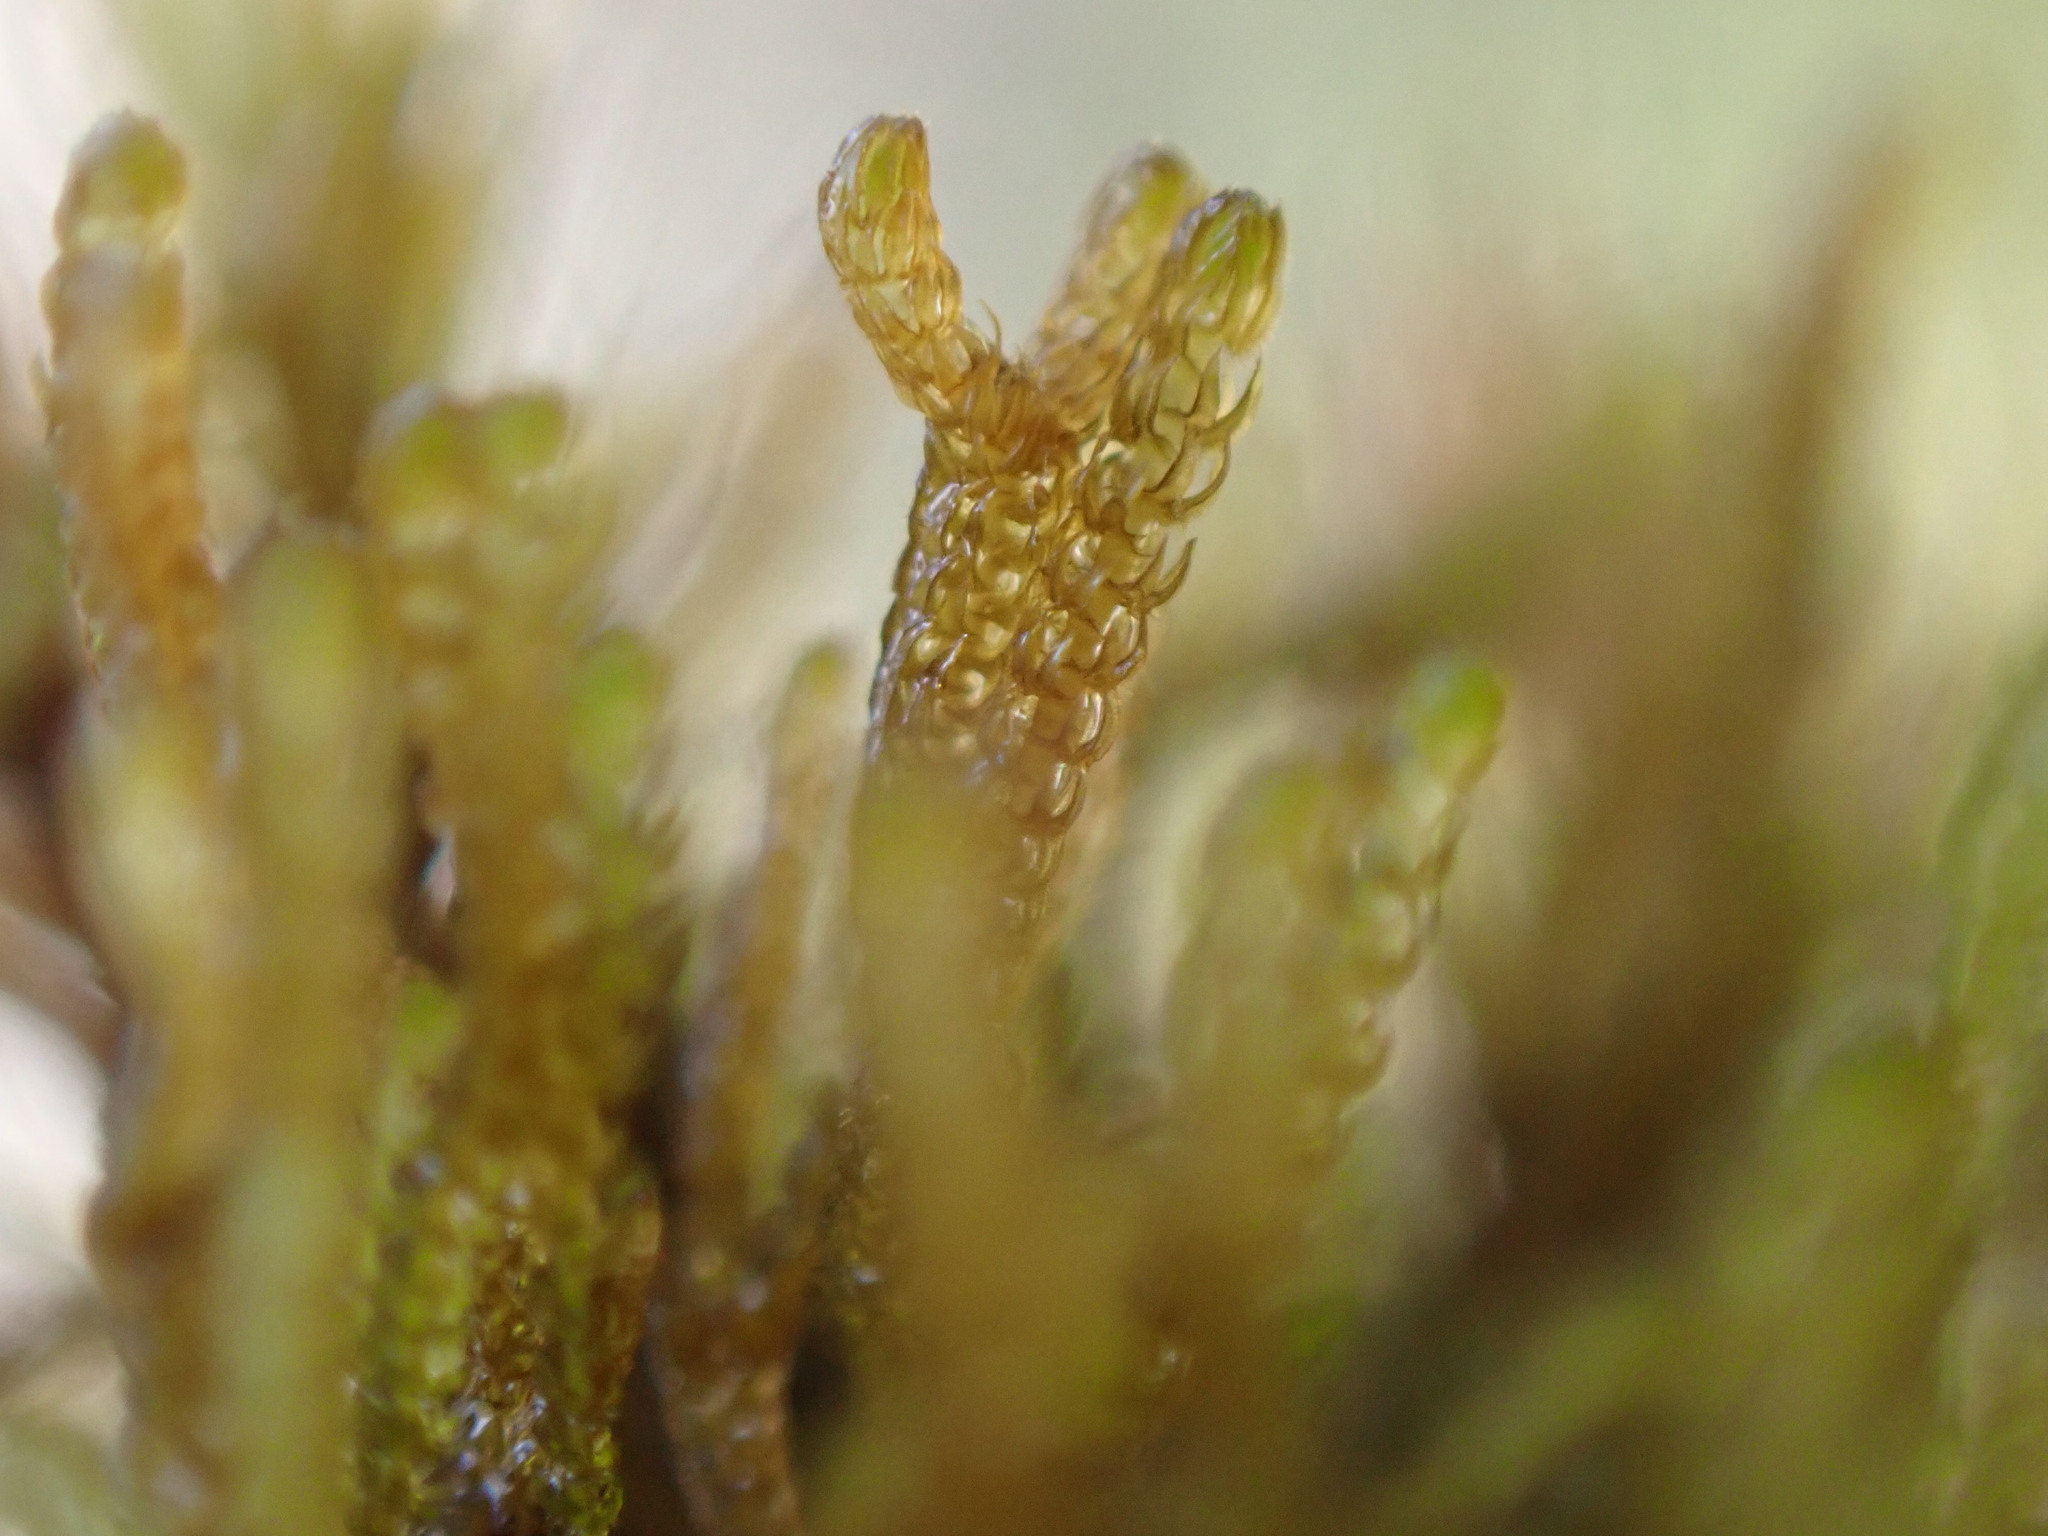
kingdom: Plantae
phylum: Marchantiophyta
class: Jungermanniopsida
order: Jungermanniales
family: Anastrophyllaceae
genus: Tetralophozia
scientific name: Tetralophozia setiformis
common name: Monster pawwort
